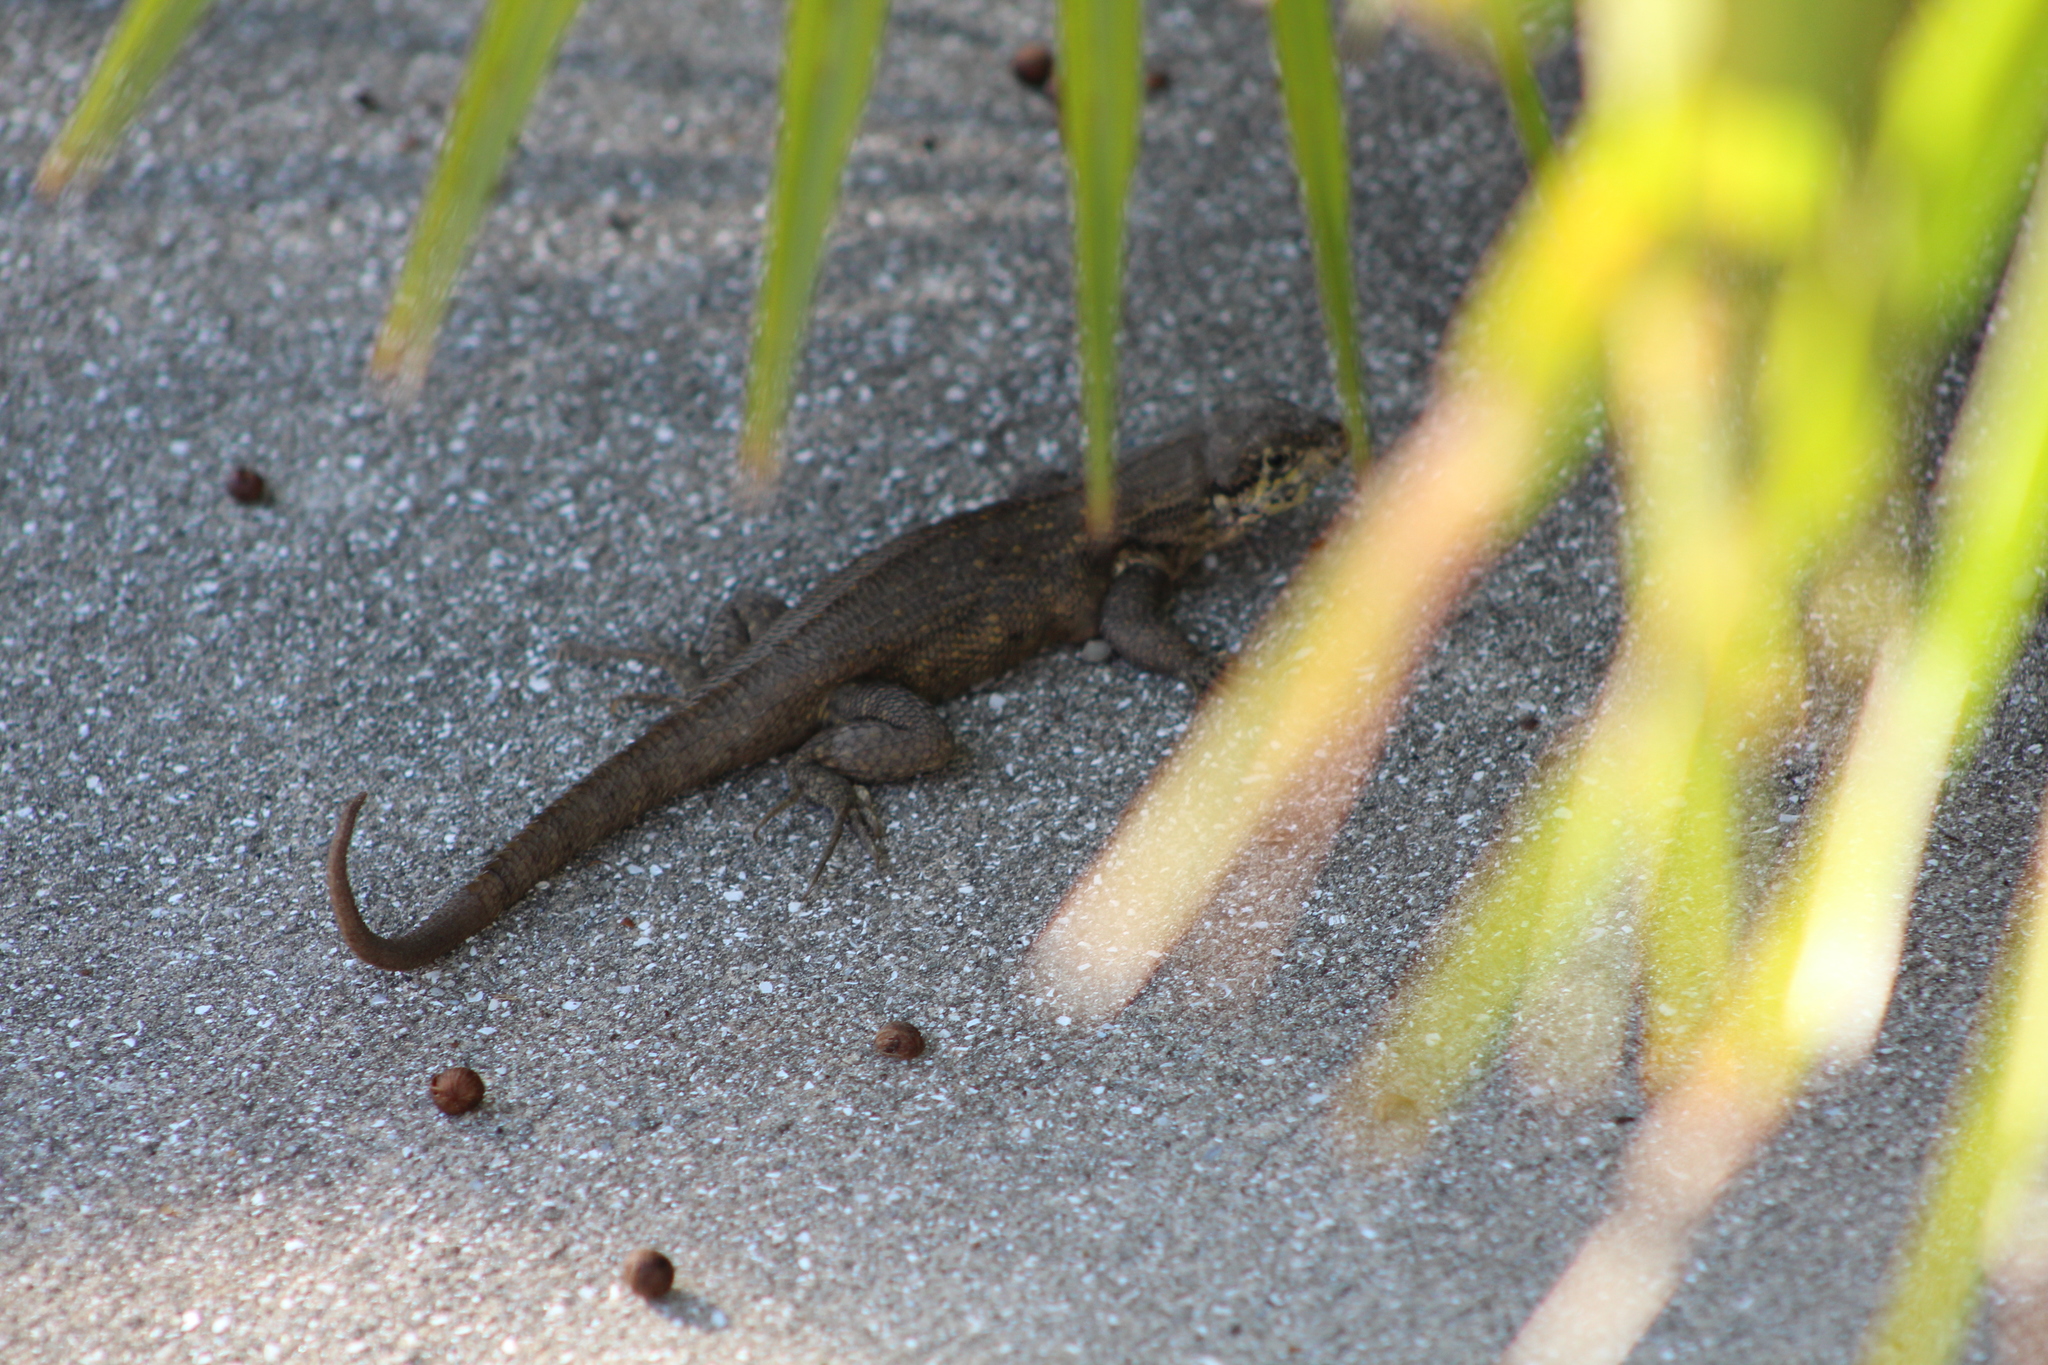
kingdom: Animalia
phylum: Chordata
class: Squamata
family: Leiocephalidae
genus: Leiocephalus
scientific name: Leiocephalus carinatus
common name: Northern curly-tailed lizard
